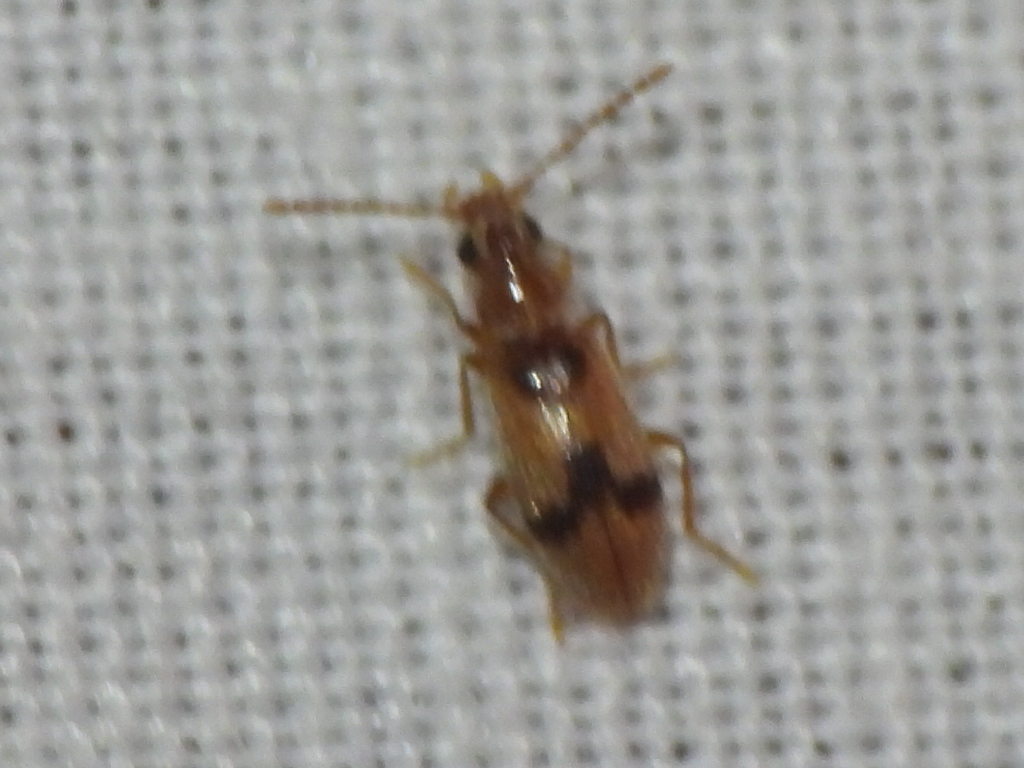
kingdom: Animalia
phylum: Arthropoda
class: Insecta
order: Coleoptera
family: Anthicidae
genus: Notoxus
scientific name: Notoxus monodon
